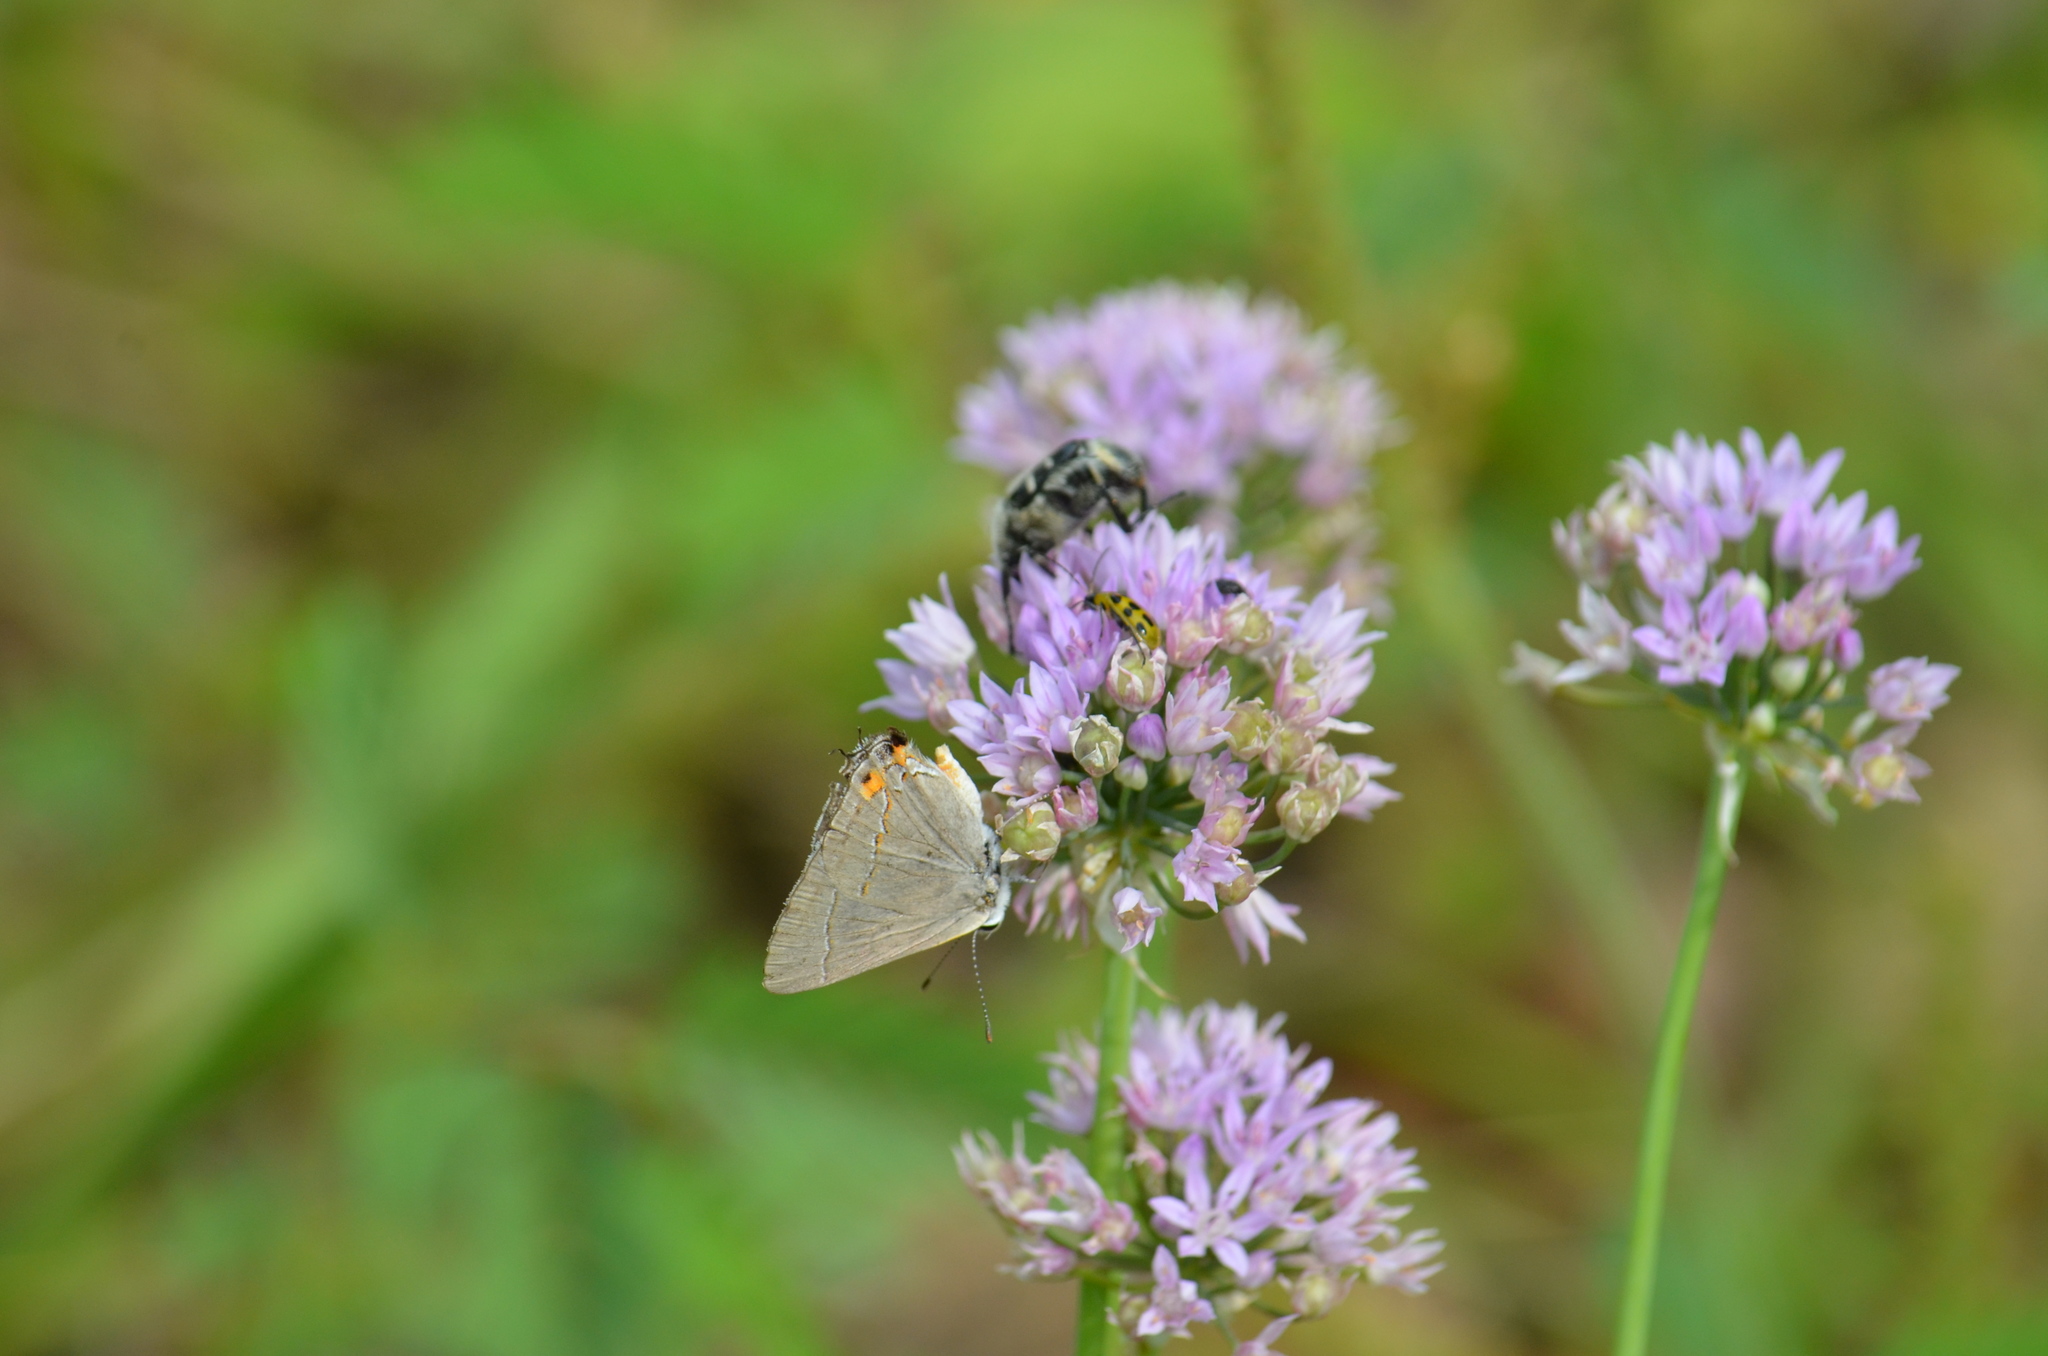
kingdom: Animalia
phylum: Arthropoda
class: Insecta
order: Lepidoptera
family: Lycaenidae
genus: Strymon
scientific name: Strymon melinus
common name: Gray hairstreak
